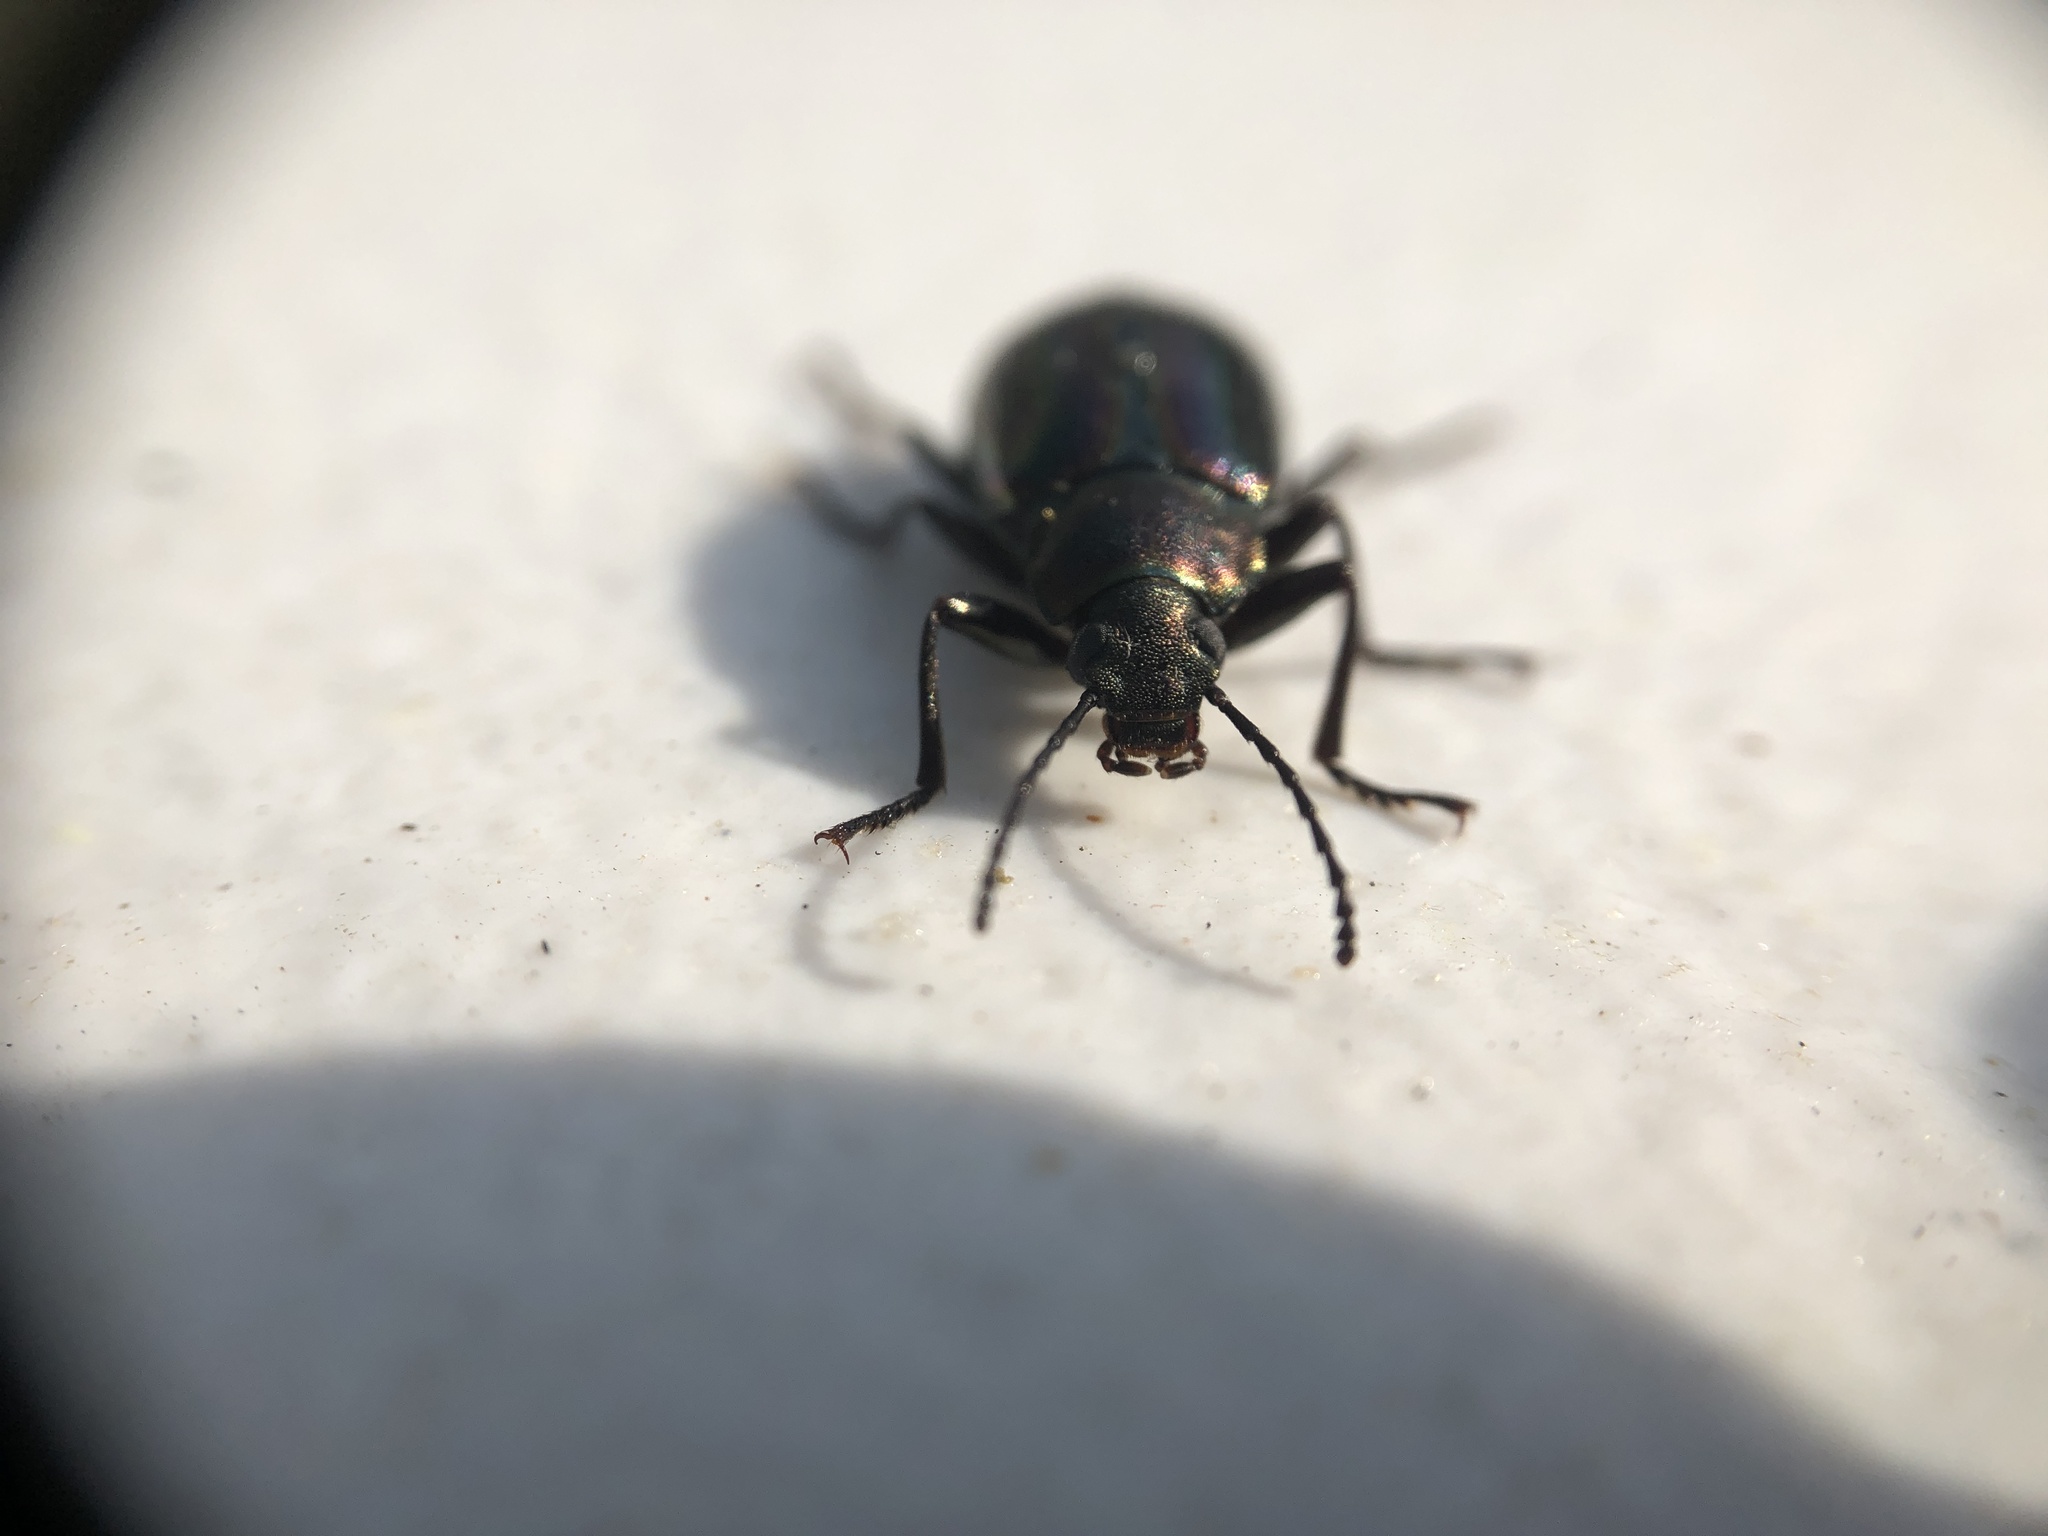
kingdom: Animalia
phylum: Arthropoda
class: Insecta
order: Coleoptera
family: Tenebrionidae
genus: Tarpela
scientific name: Tarpela micans
